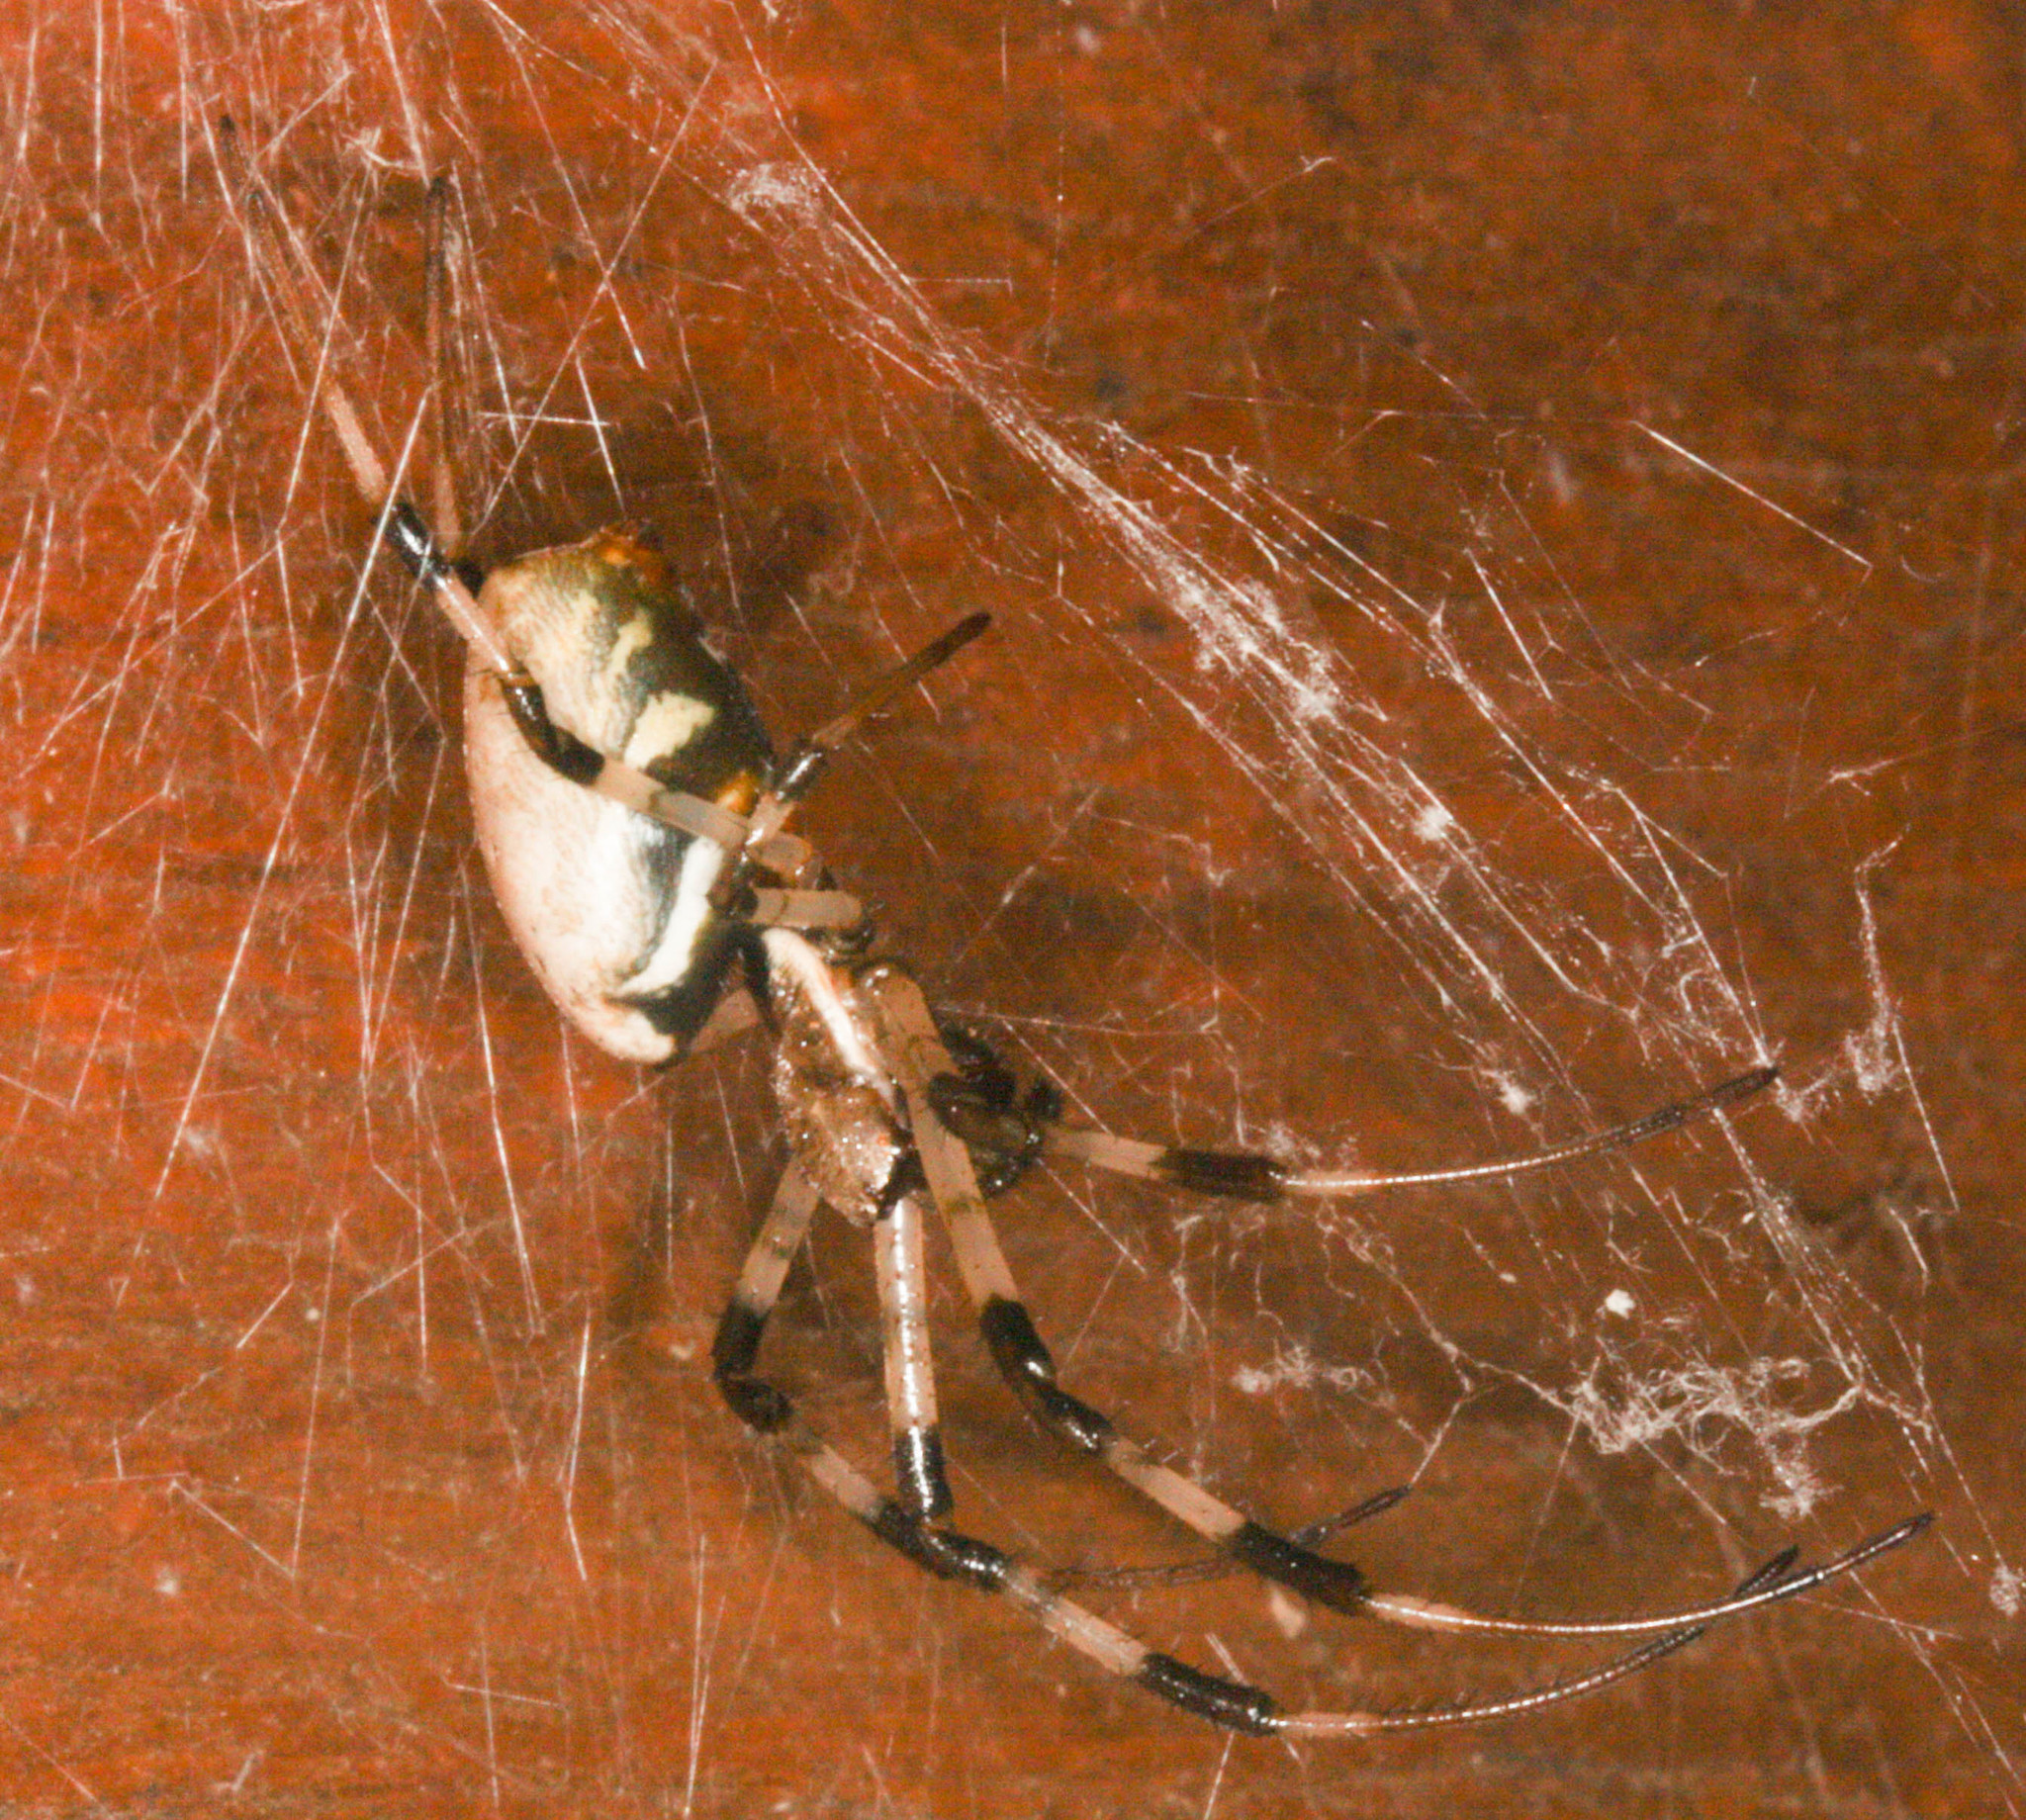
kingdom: Animalia
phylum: Arthropoda
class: Arachnida
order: Araneae
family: Araneidae
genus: Nephilingis
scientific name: Nephilingis livida
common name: Madagascar hermit spider
